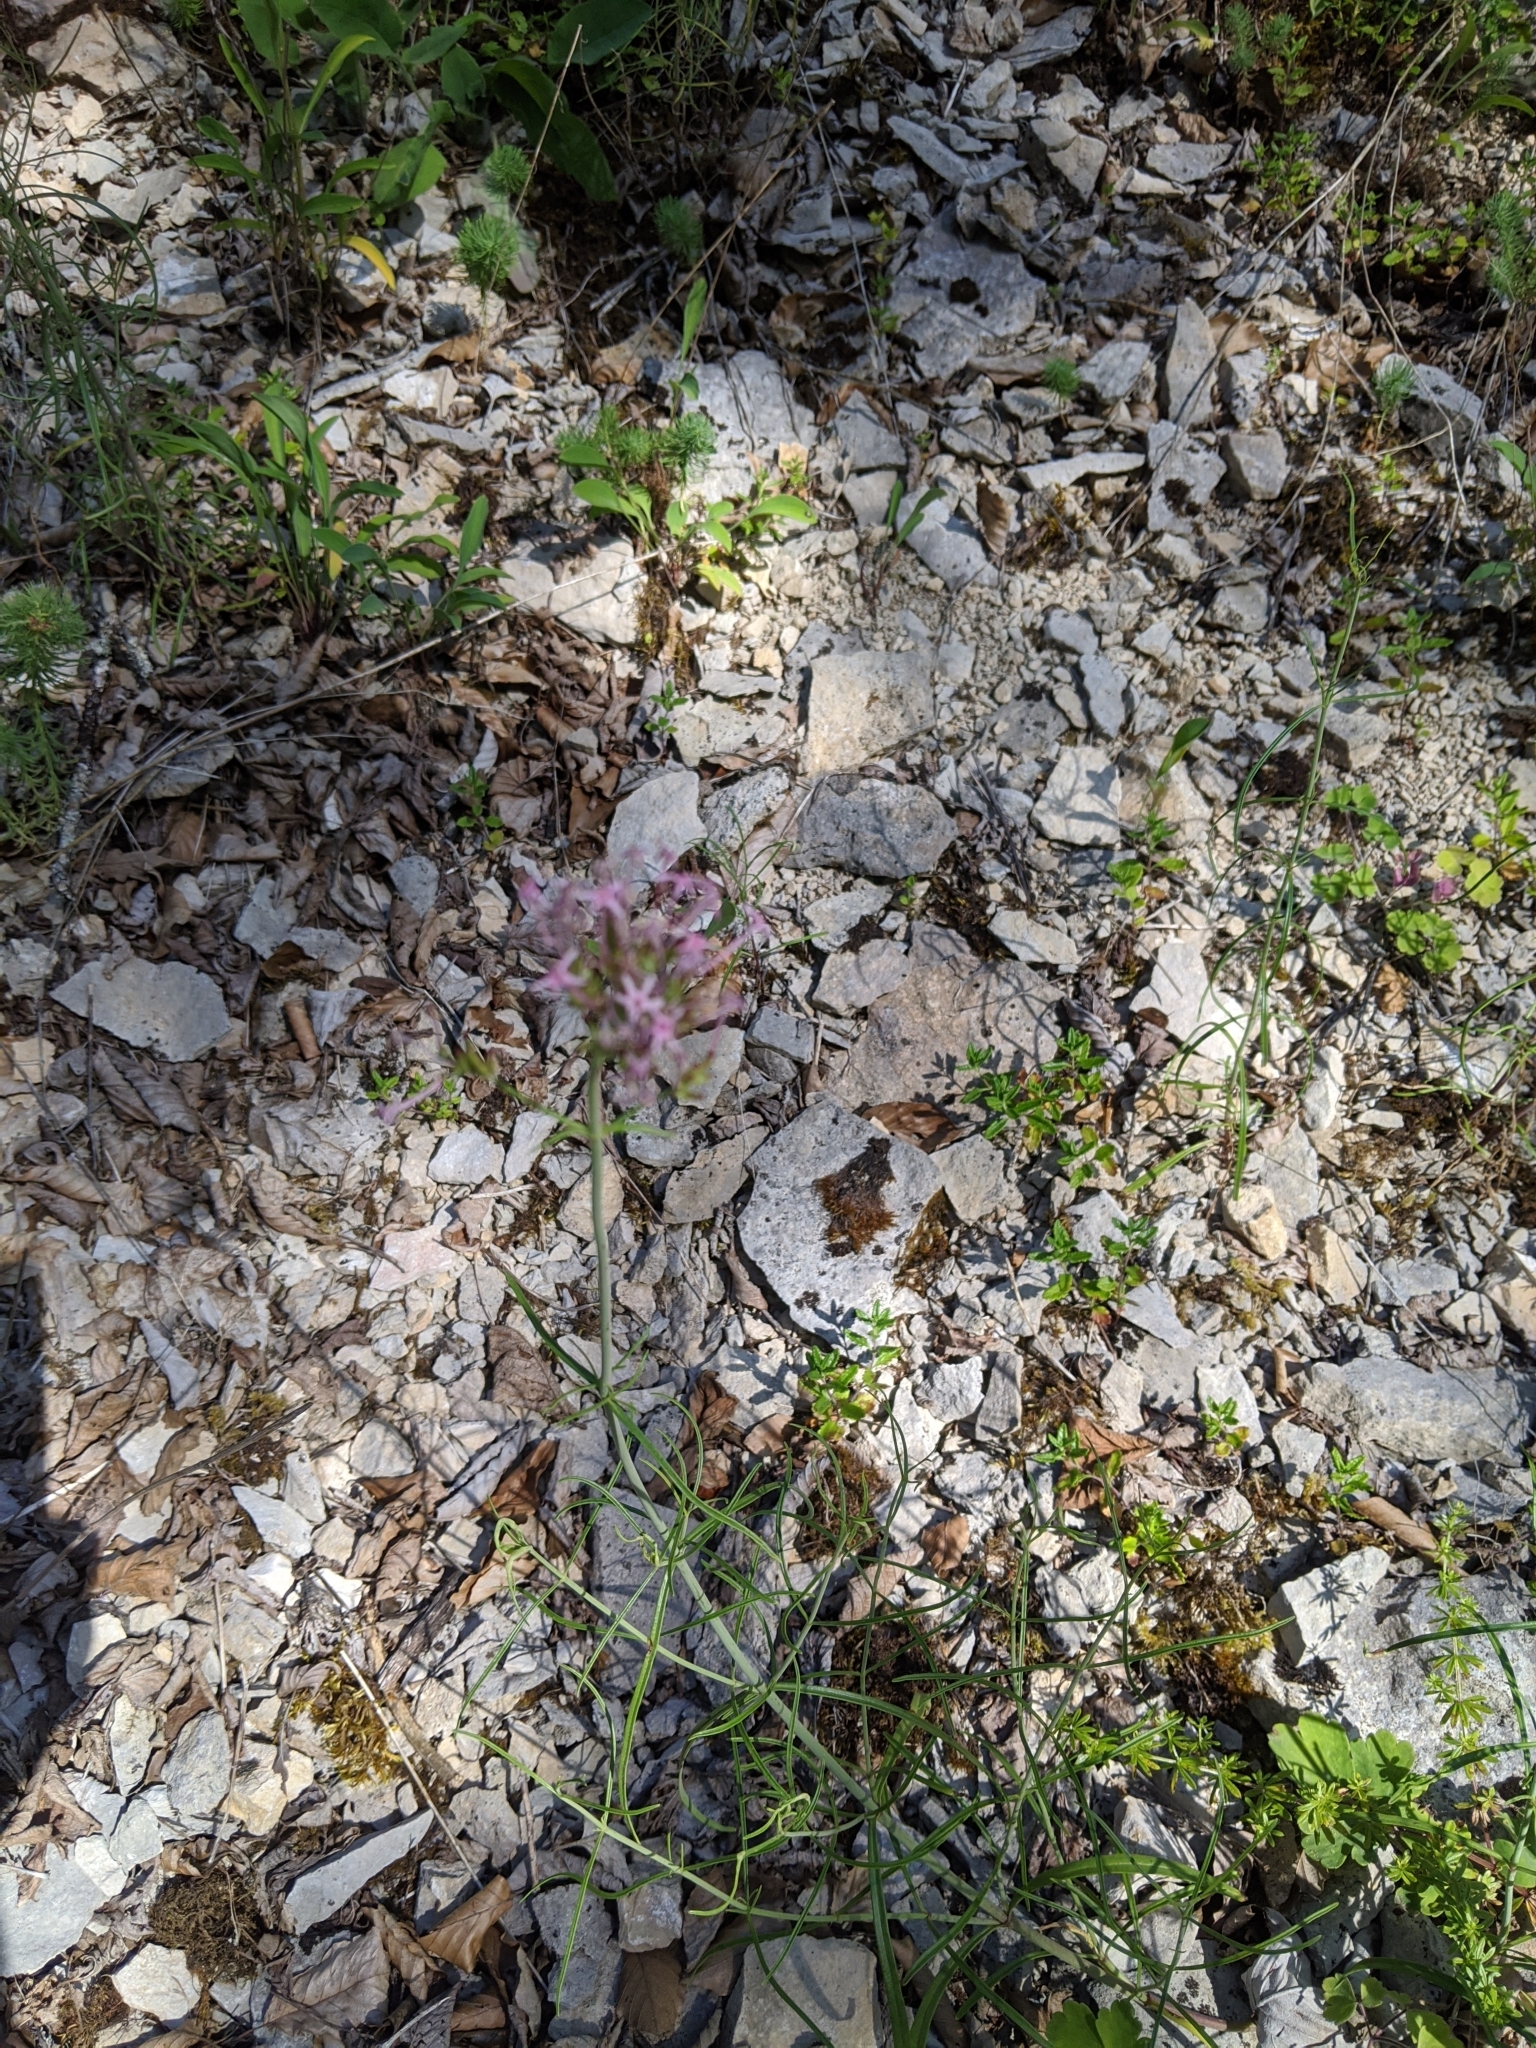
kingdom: Plantae
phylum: Tracheophyta
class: Magnoliopsida
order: Dipsacales
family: Caprifoliaceae
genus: Centranthus
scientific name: Centranthus angustifolius
